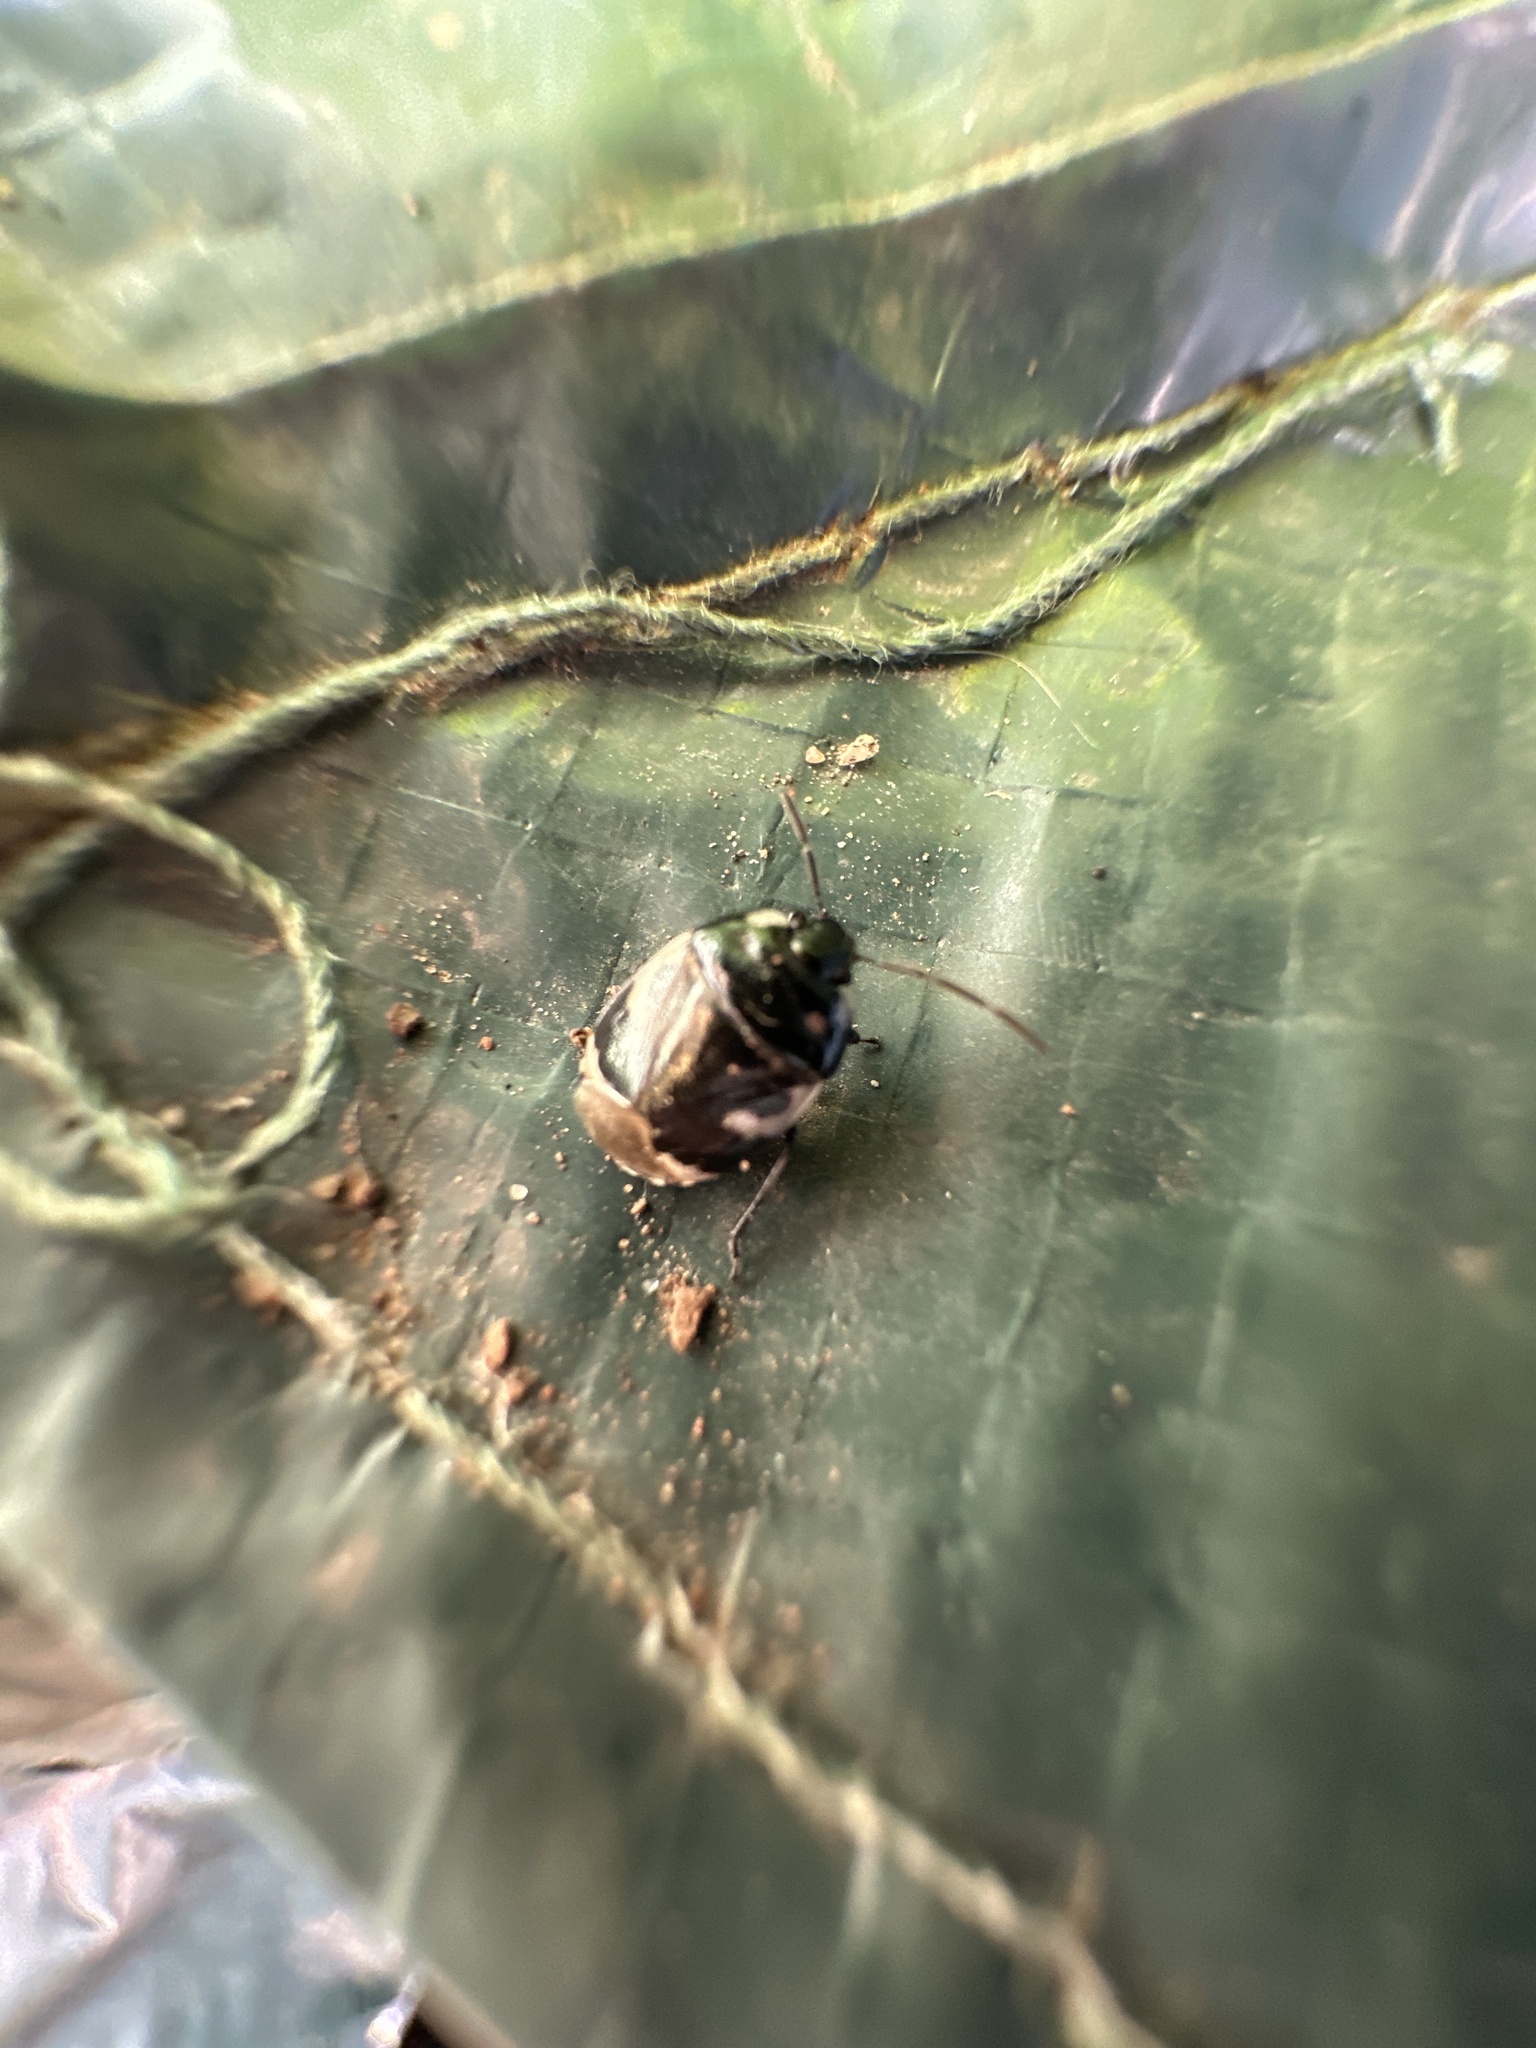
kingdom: Animalia
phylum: Arthropoda
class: Insecta
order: Hemiptera
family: Cydnidae
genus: Tritomegas
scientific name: Tritomegas bicolor
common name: Pied shieldbug
